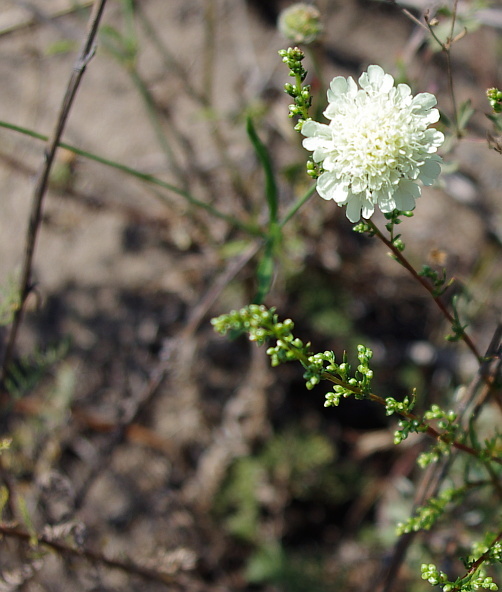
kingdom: Plantae
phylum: Tracheophyta
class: Magnoliopsida
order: Dipsacales
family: Caprifoliaceae
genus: Scabiosa
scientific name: Scabiosa ochroleuca
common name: Cream pincushions
